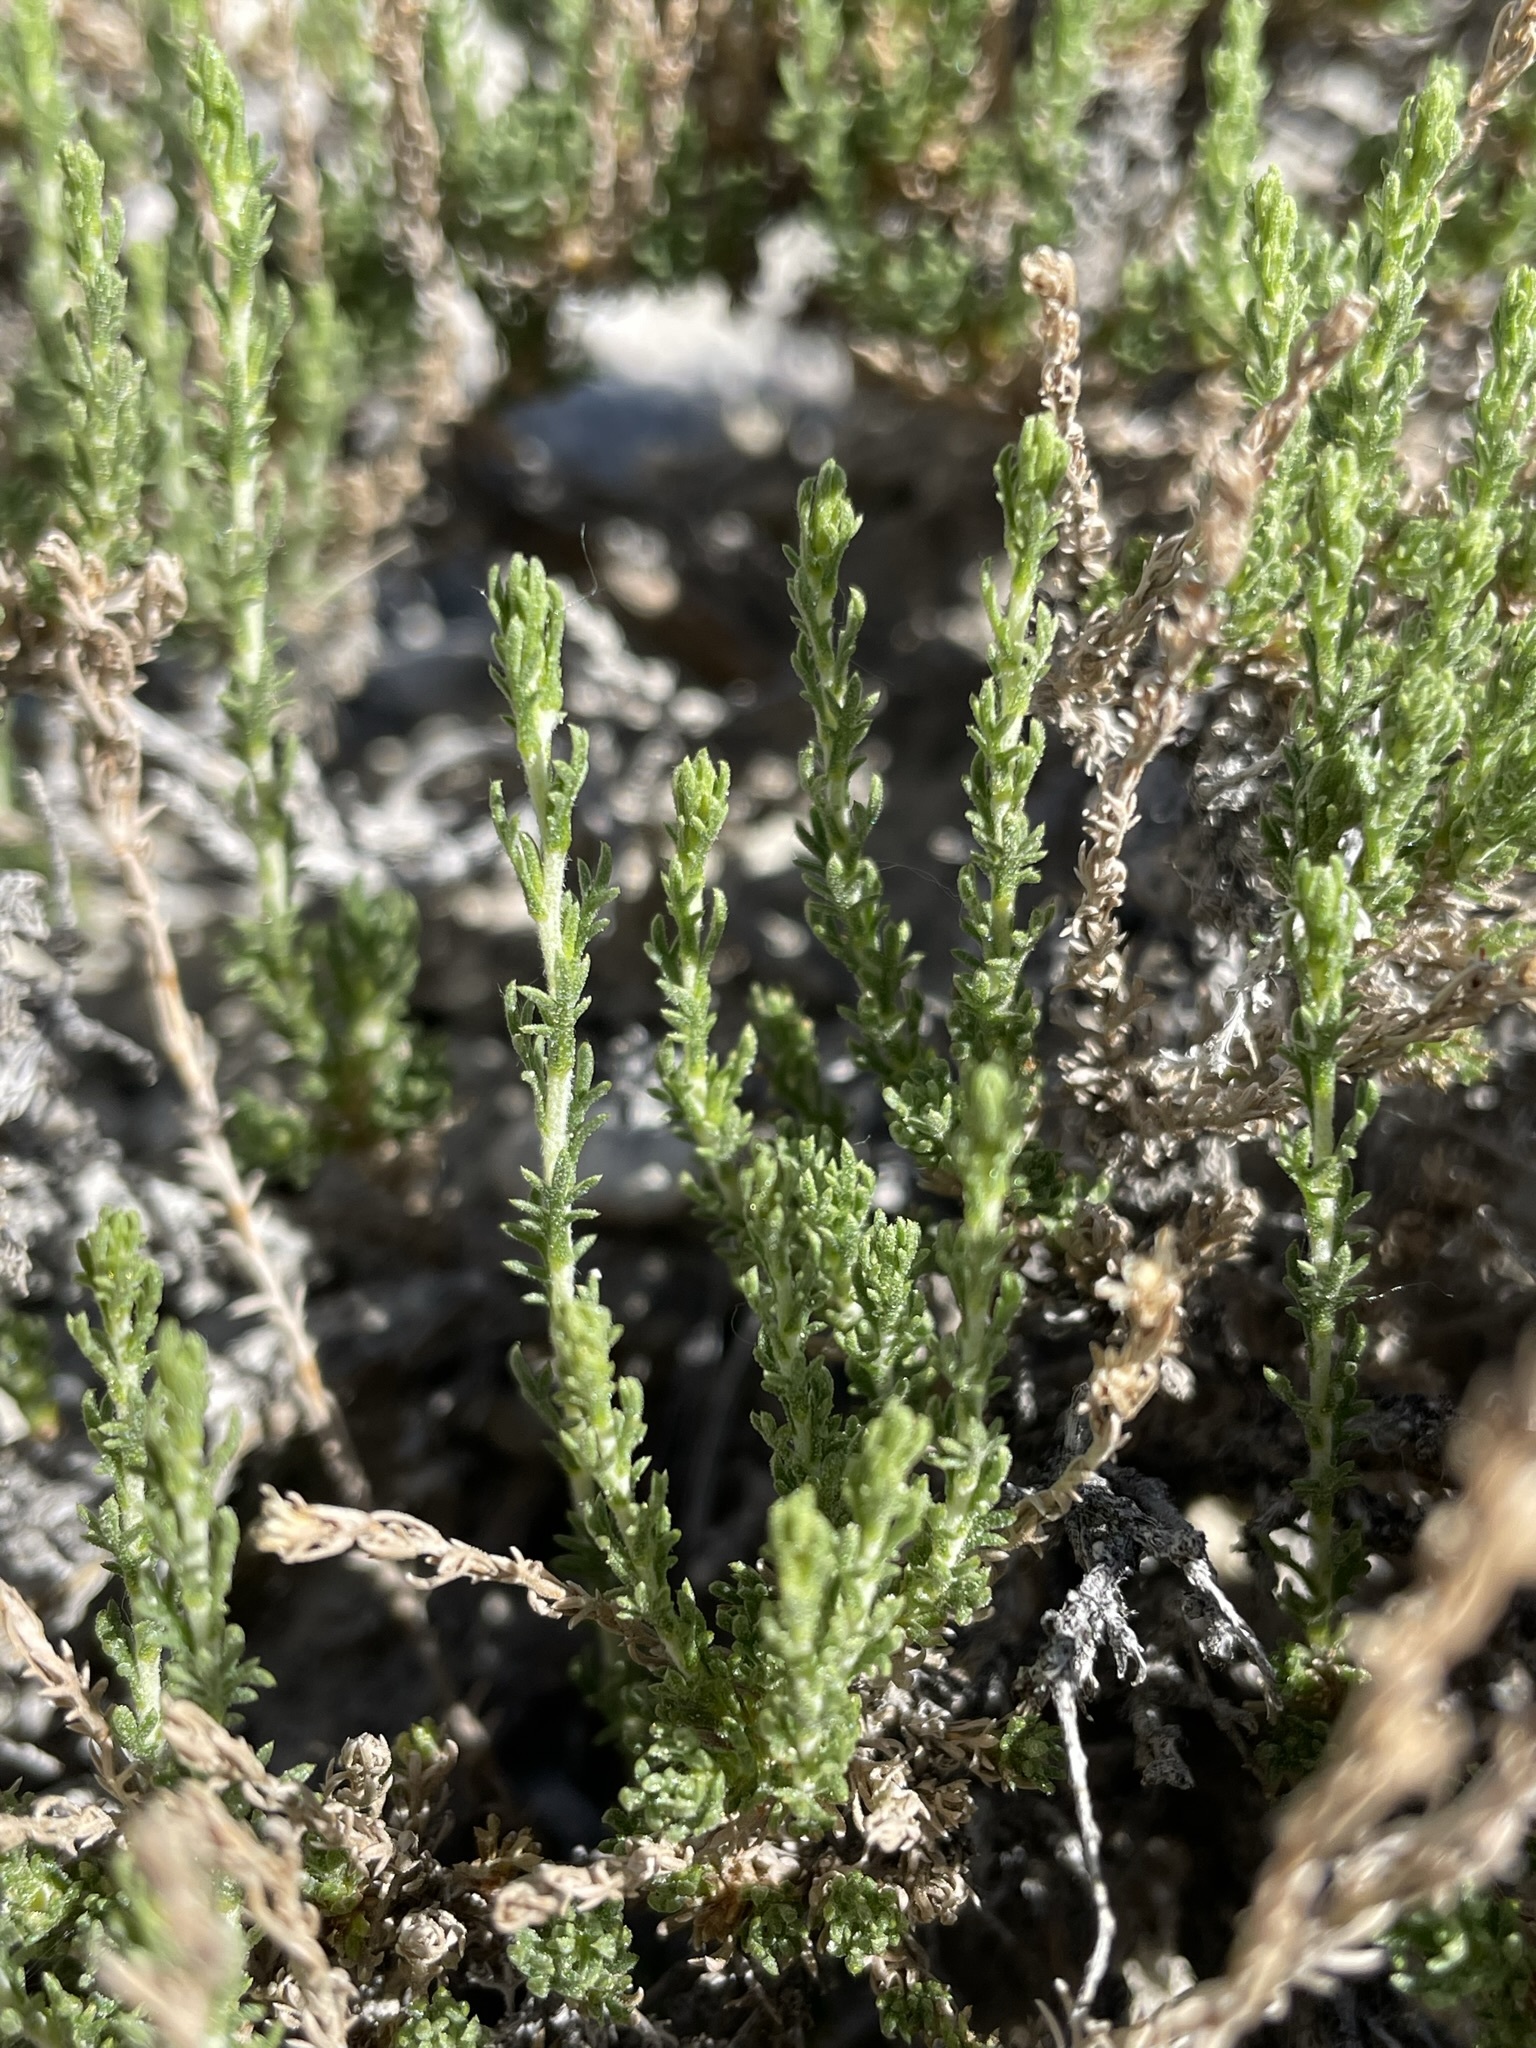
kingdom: Plantae
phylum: Tracheophyta
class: Magnoliopsida
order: Asterales
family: Asteraceae
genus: Artemisia
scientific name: Artemisia pygmaea
